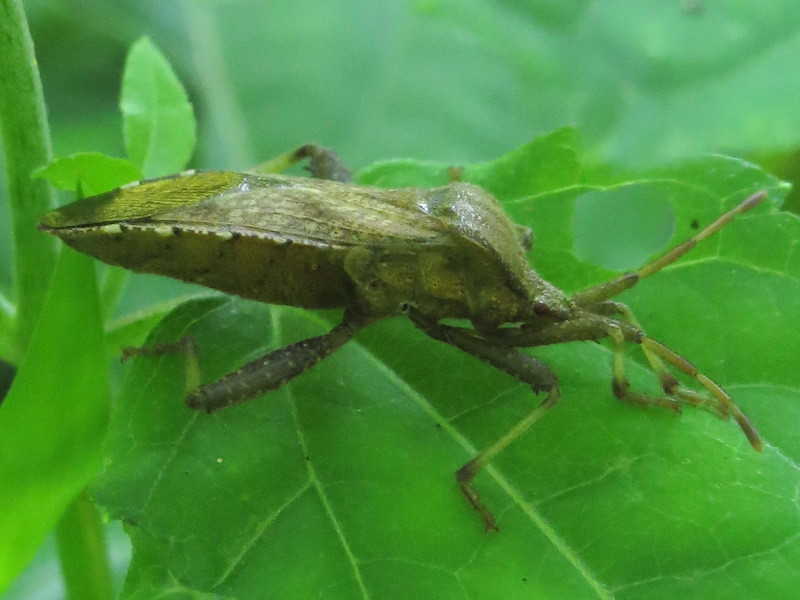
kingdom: Animalia
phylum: Arthropoda
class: Insecta
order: Hemiptera
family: Coreidae
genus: Euthochtha
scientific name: Euthochtha galeator
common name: Helmeted squash bug
